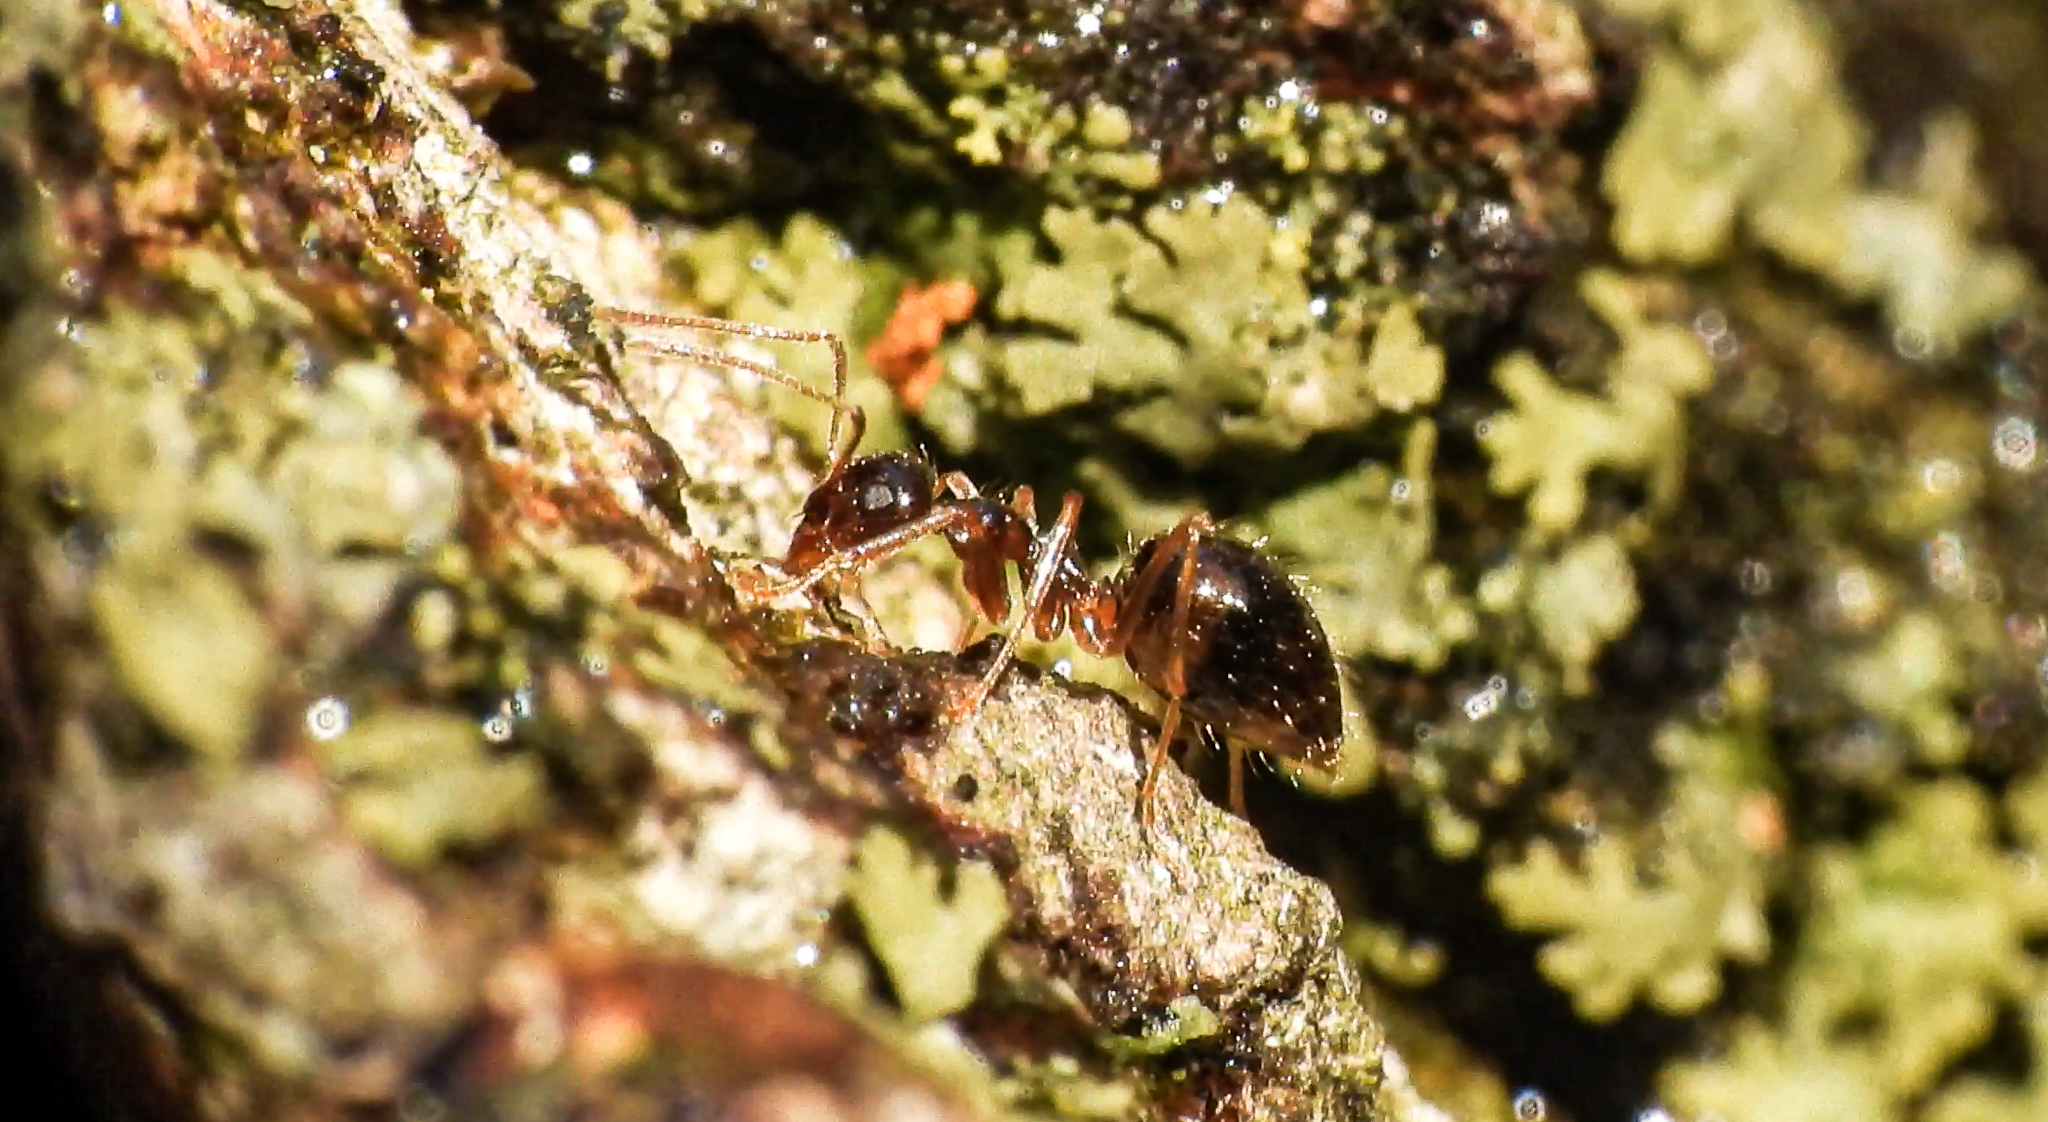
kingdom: Animalia
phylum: Arthropoda
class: Insecta
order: Hymenoptera
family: Formicidae
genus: Prenolepis
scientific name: Prenolepis imparis
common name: Small honey ant
